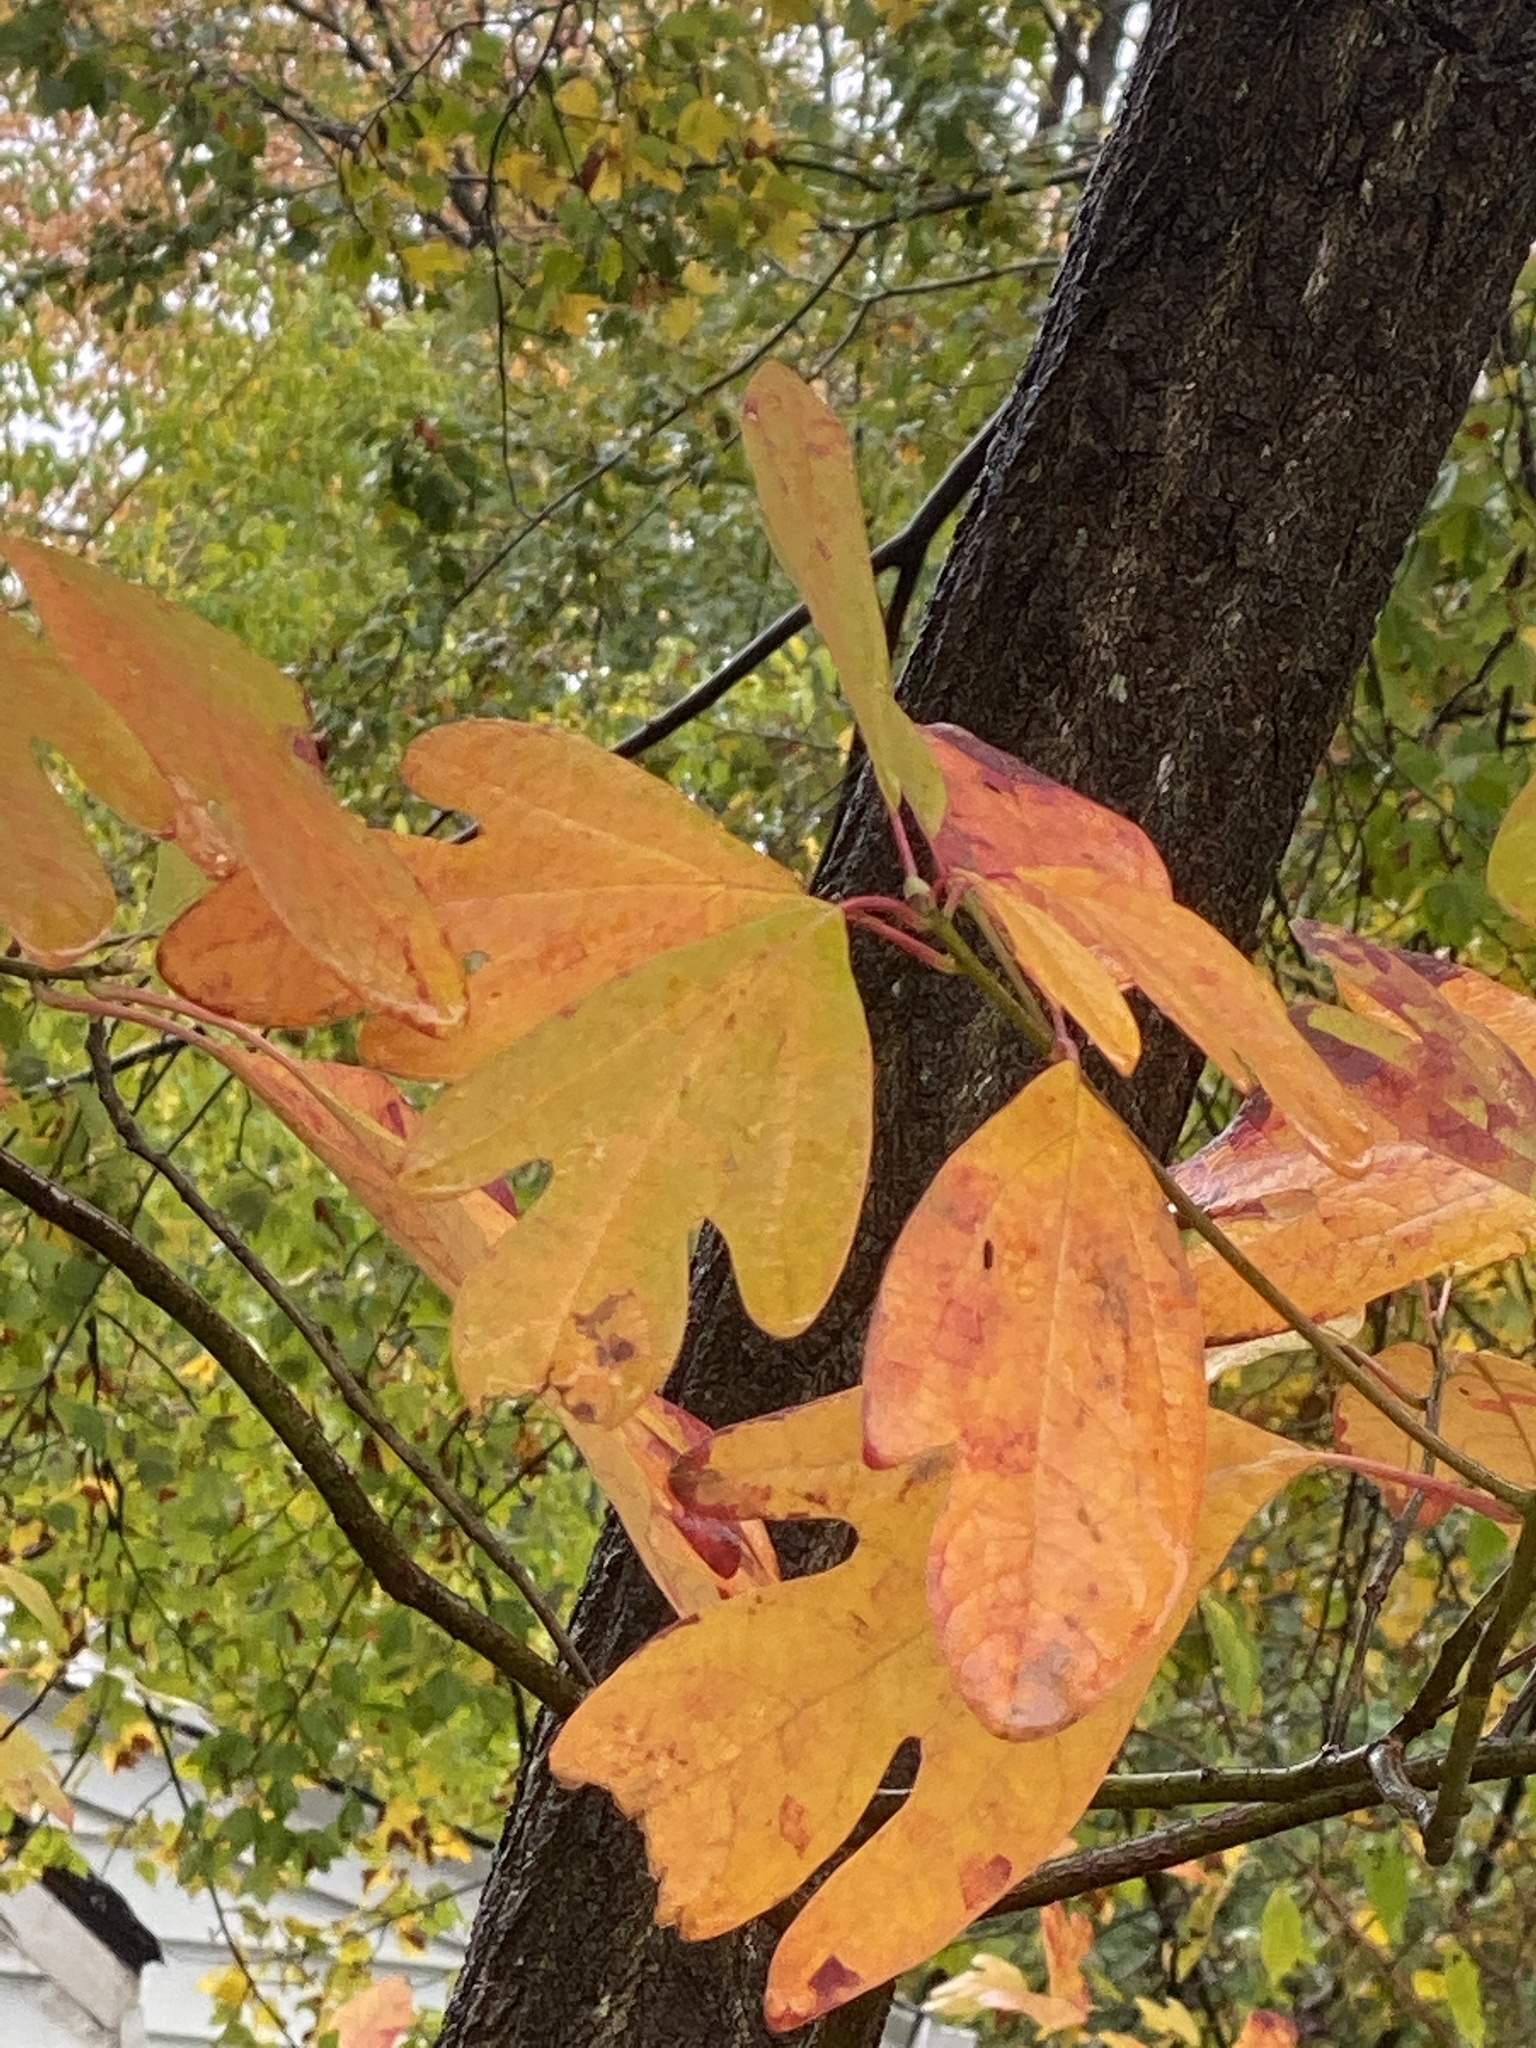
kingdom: Plantae
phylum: Tracheophyta
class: Magnoliopsida
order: Laurales
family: Lauraceae
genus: Sassafras
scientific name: Sassafras albidum
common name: Sassafras
